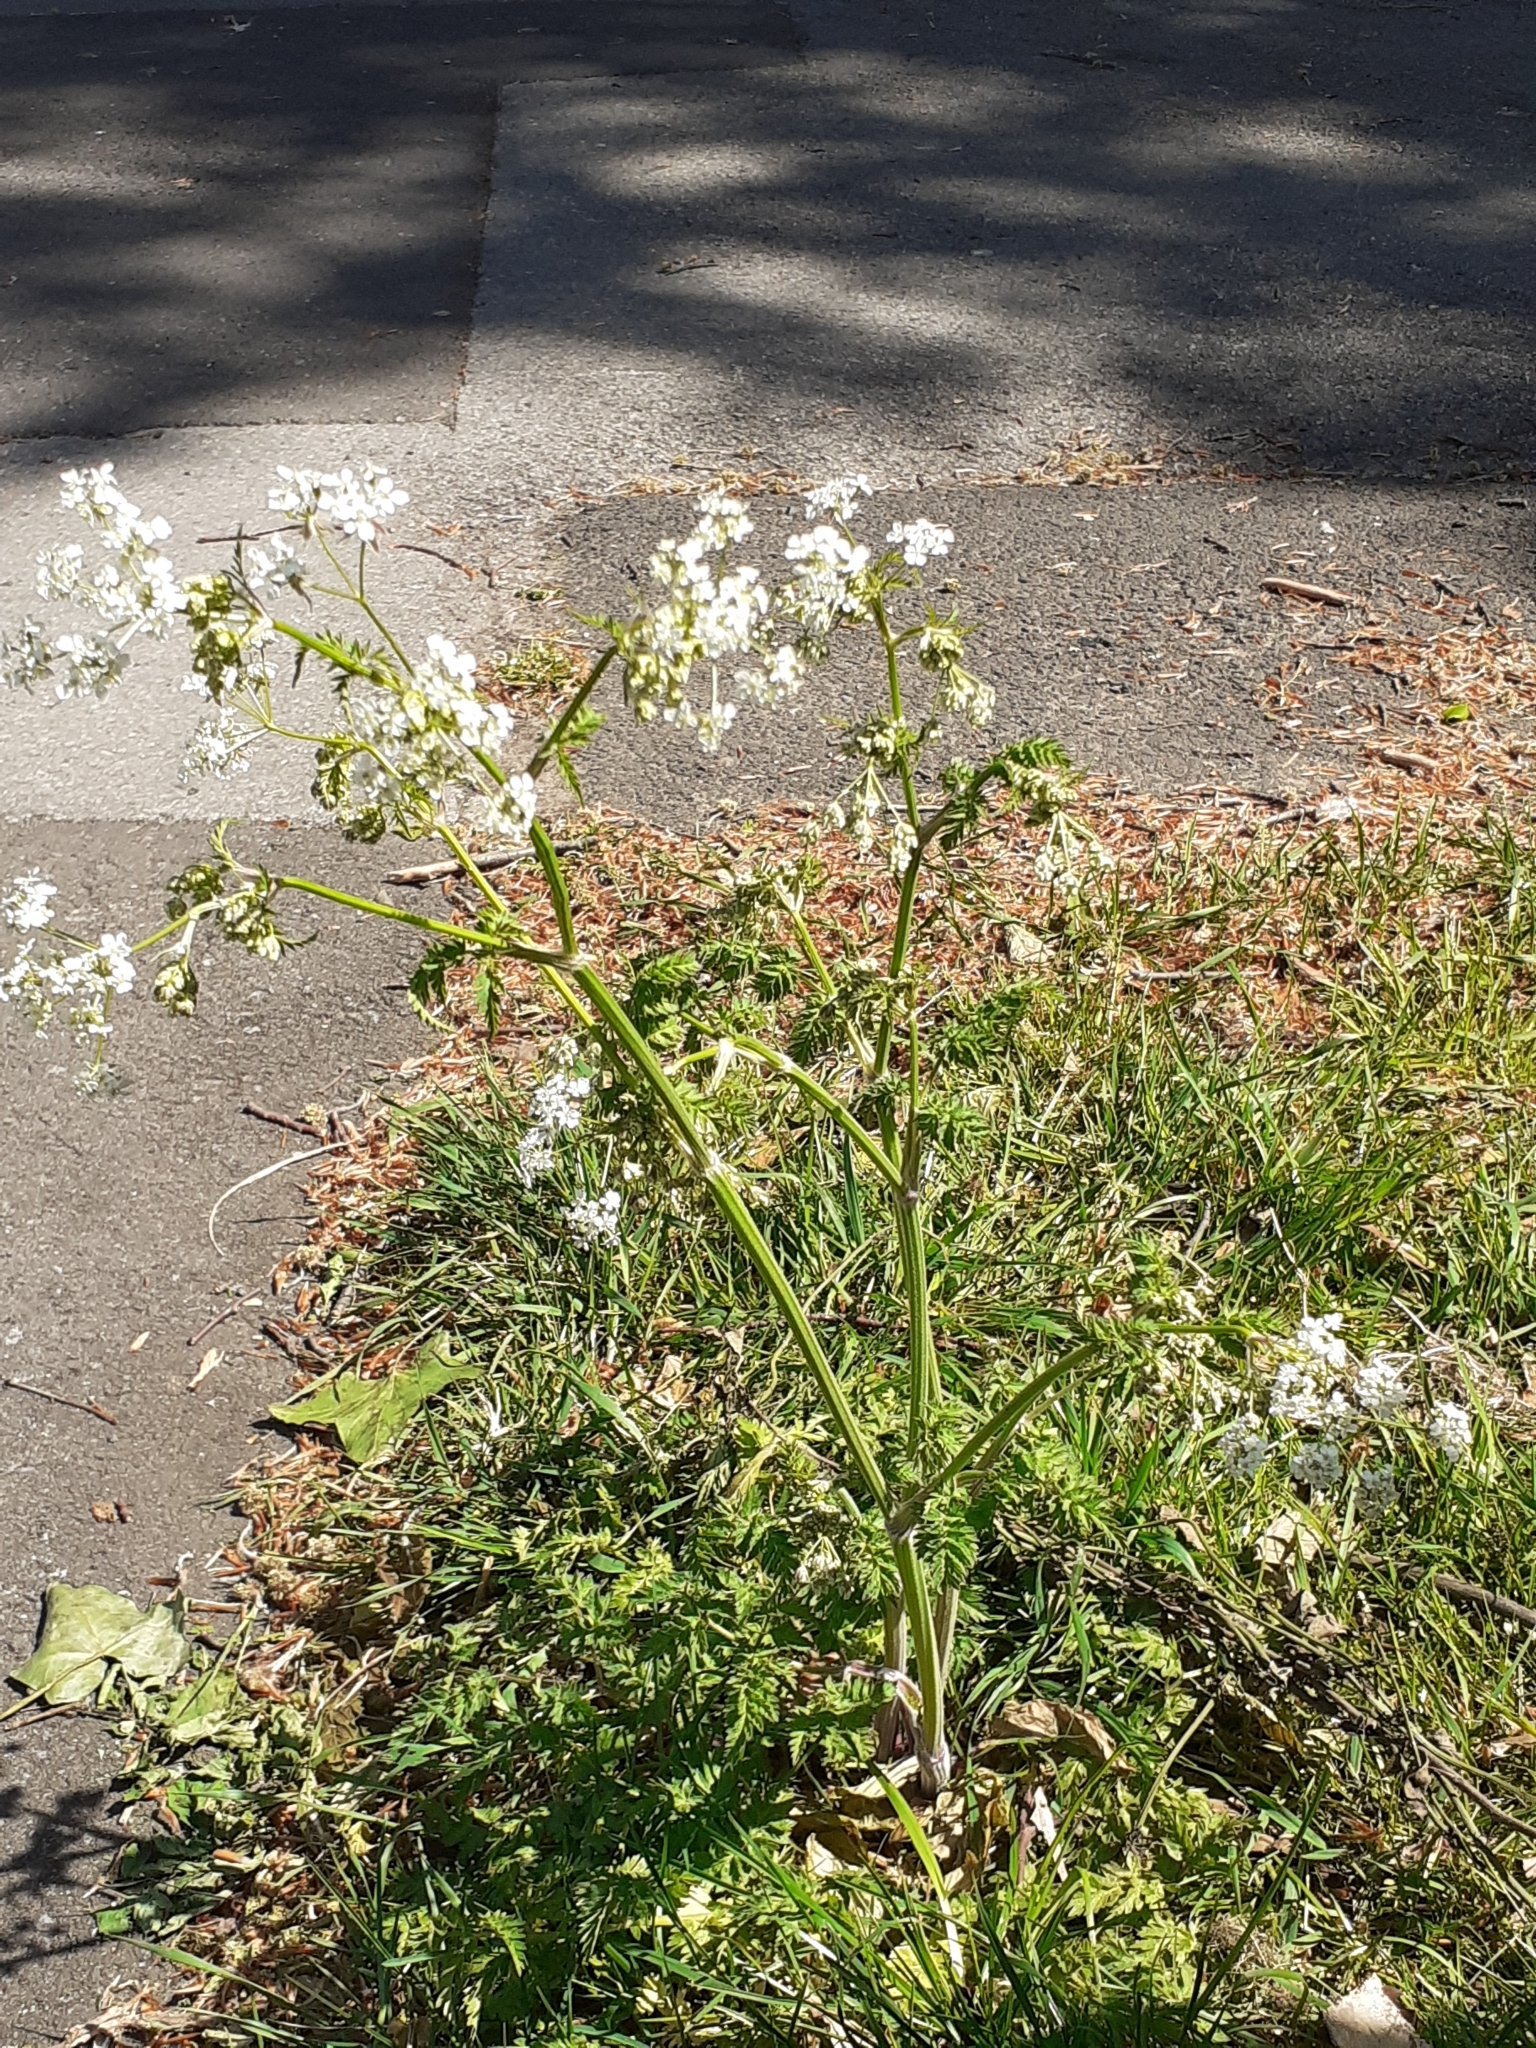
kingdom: Plantae
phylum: Tracheophyta
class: Magnoliopsida
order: Apiales
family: Apiaceae
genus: Anthriscus
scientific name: Anthriscus sylvestris
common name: Cow parsley
